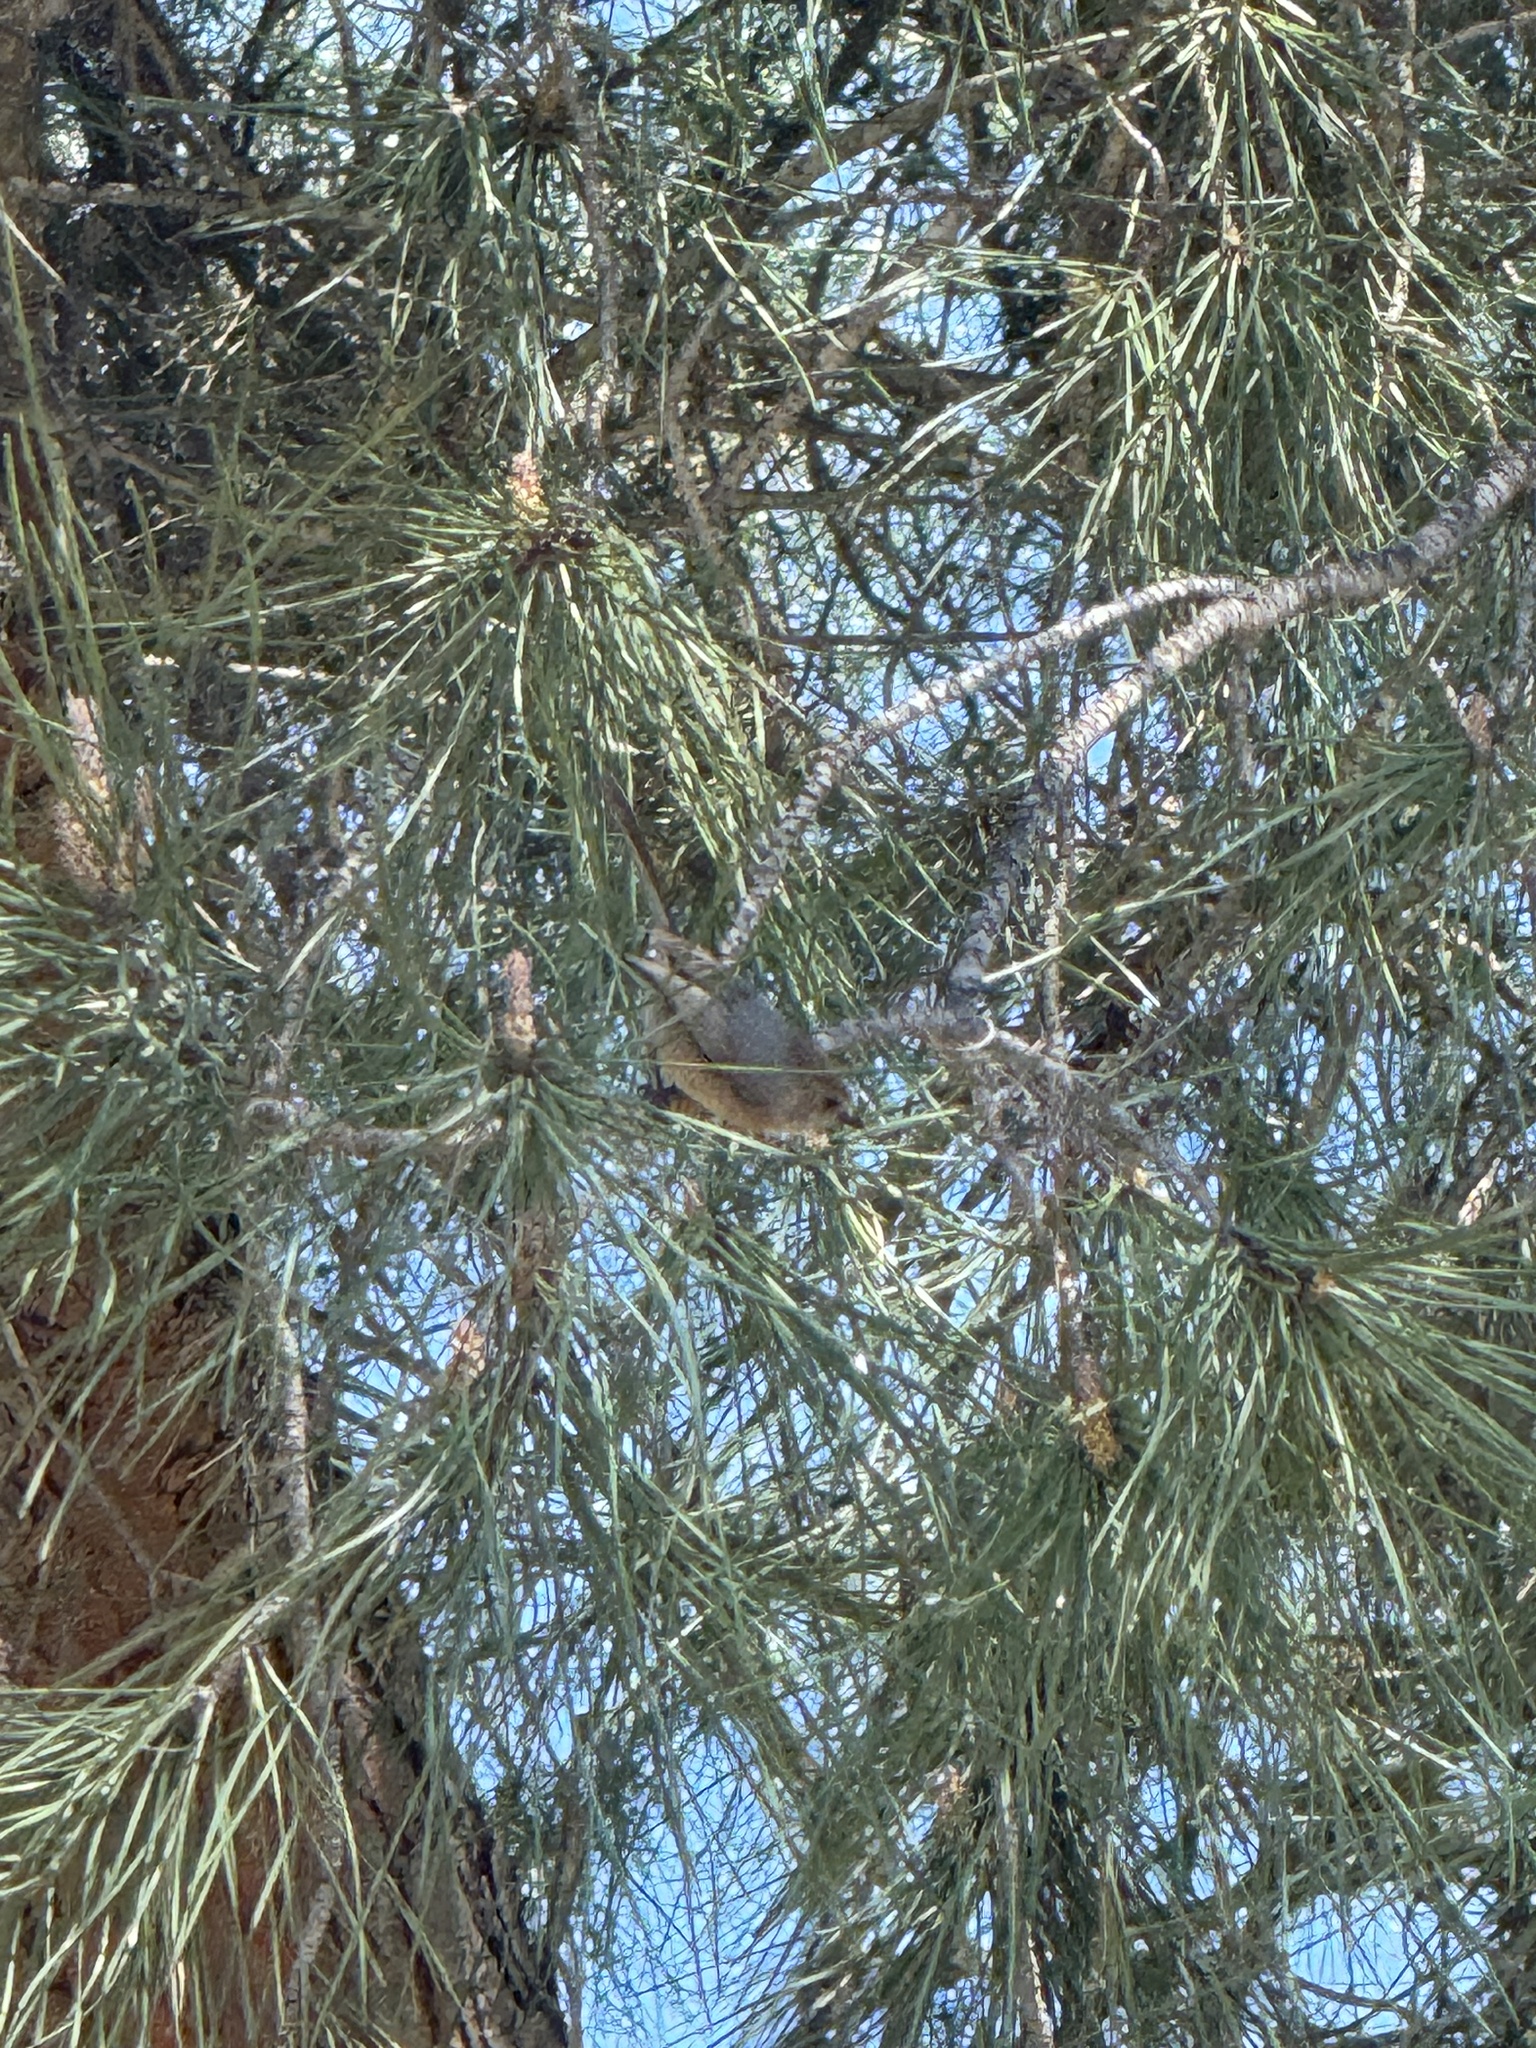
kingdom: Animalia
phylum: Chordata
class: Aves
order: Passeriformes
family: Aegithalidae
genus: Psaltriparus
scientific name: Psaltriparus minimus
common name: American bushtit
